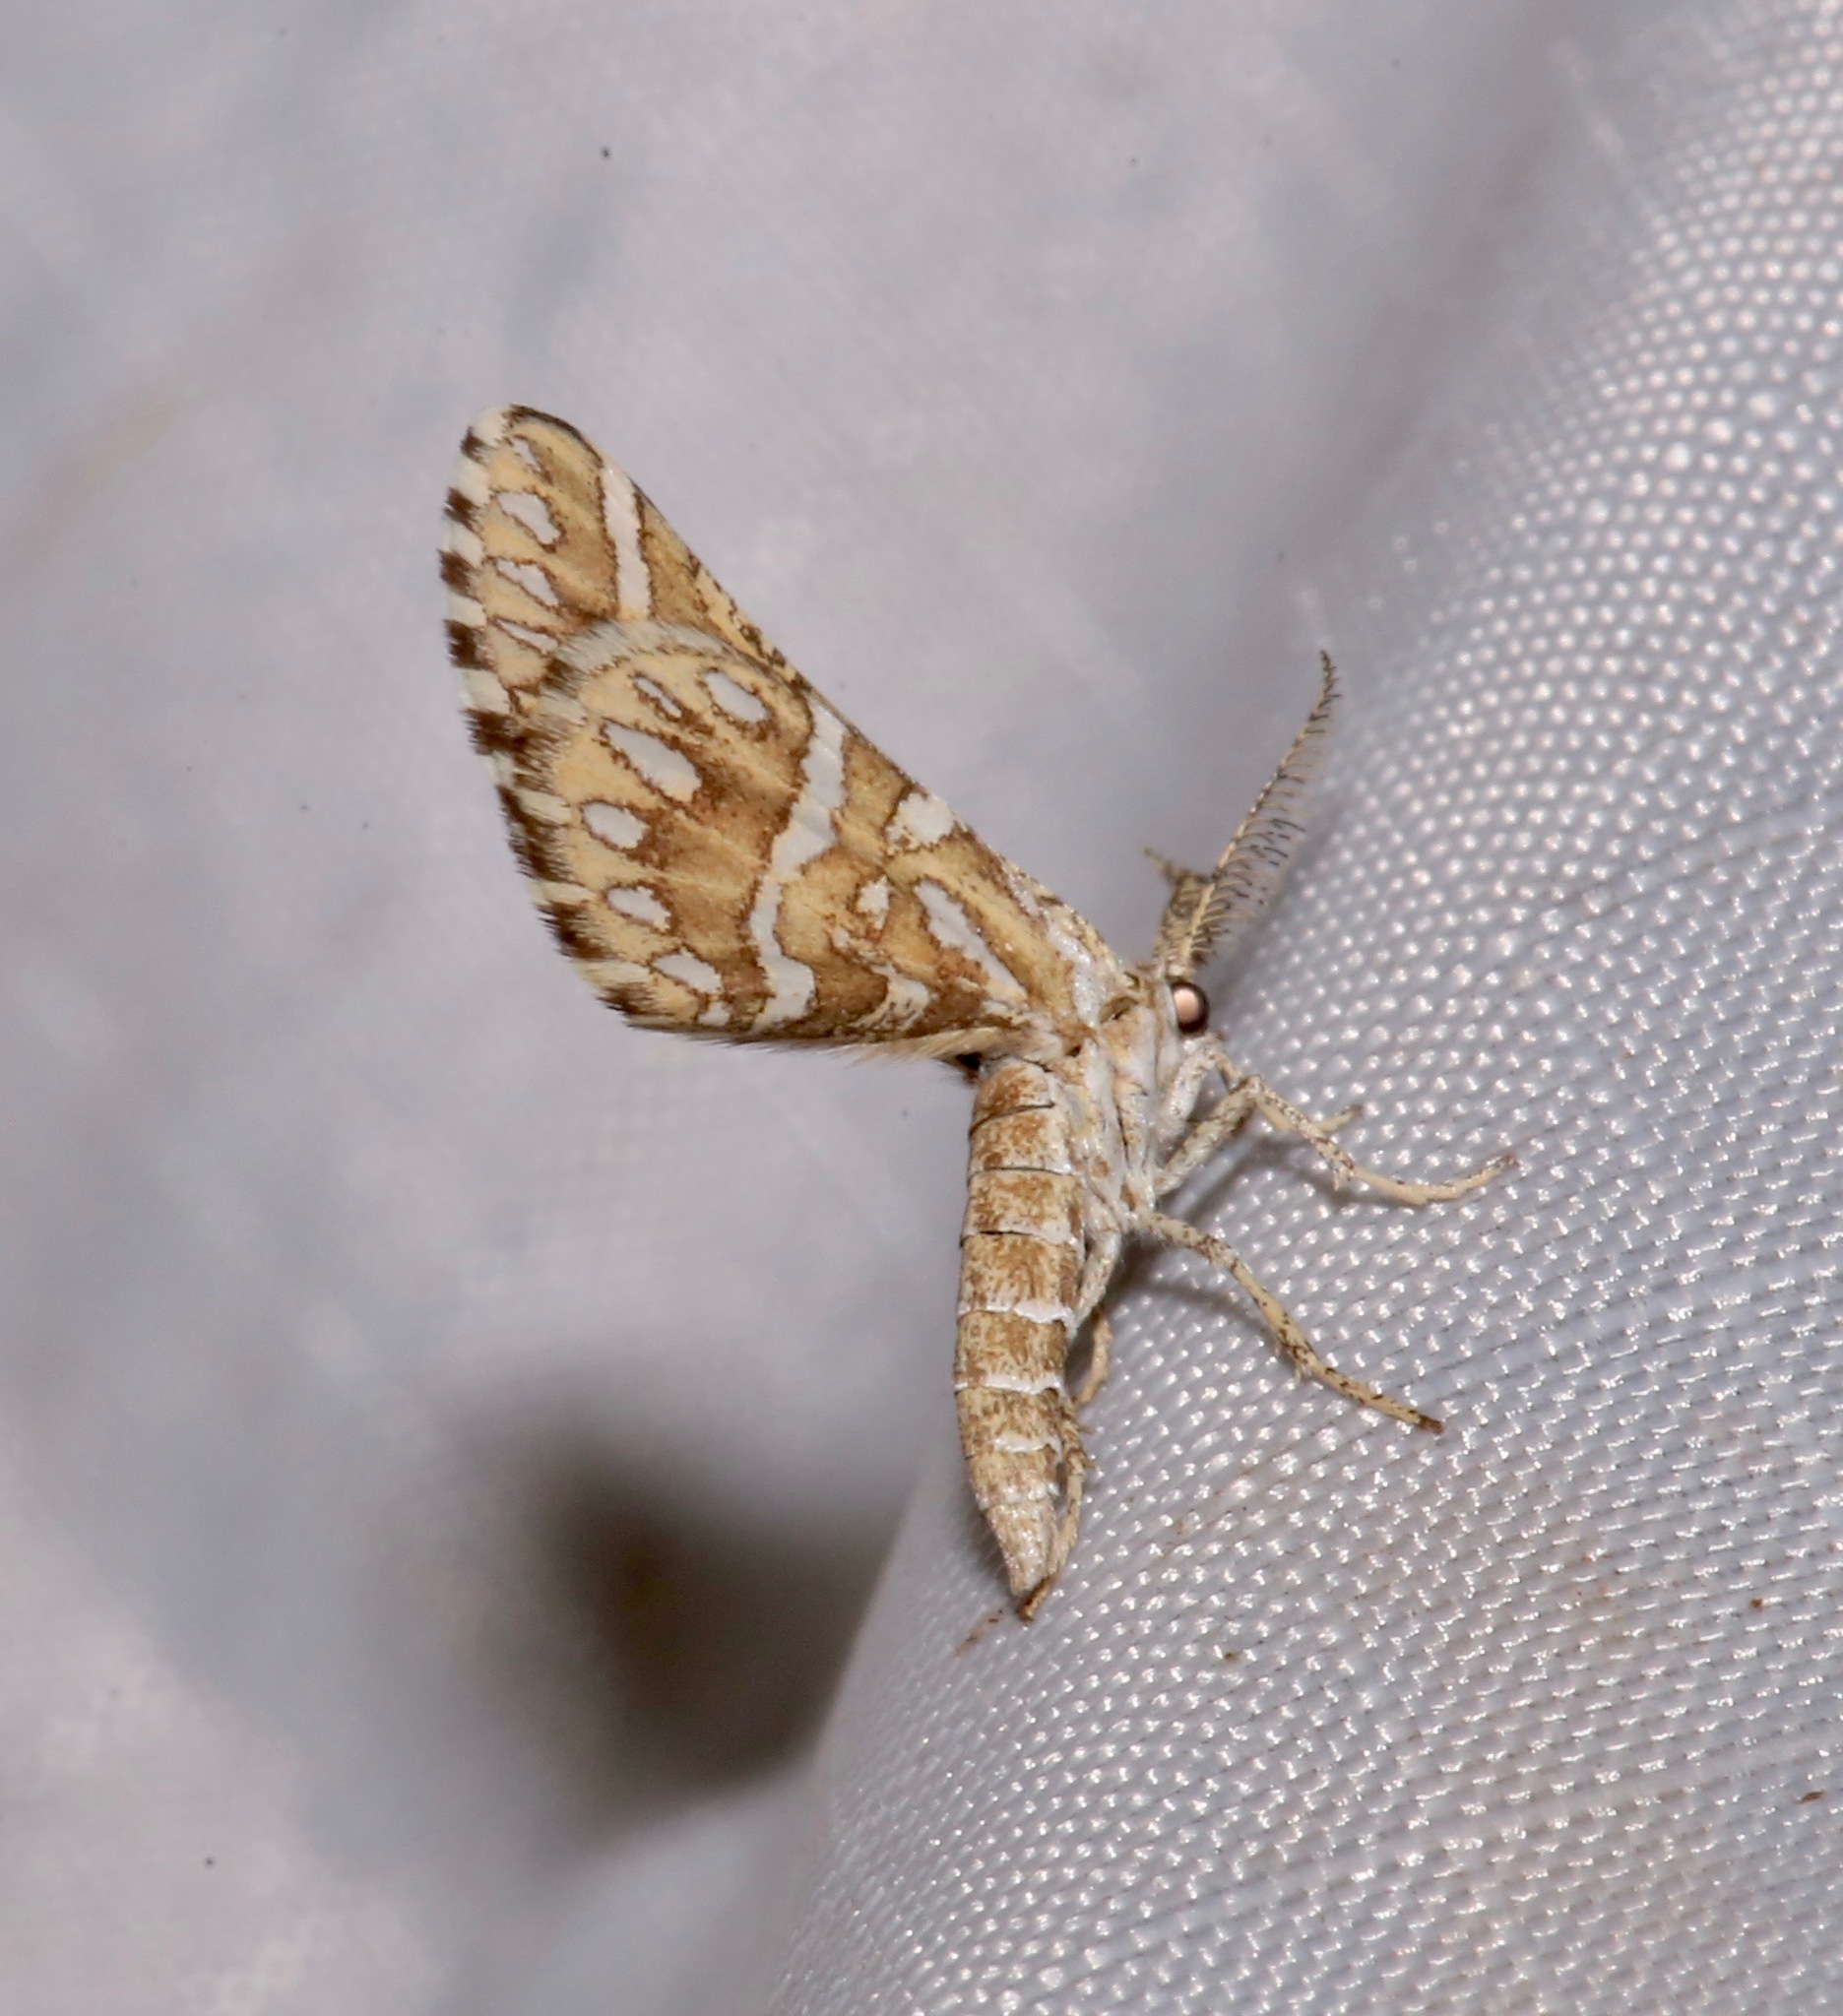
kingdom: Animalia
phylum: Arthropoda
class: Insecta
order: Lepidoptera
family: Geometridae
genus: Narraga
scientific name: Narraga fimetaria
